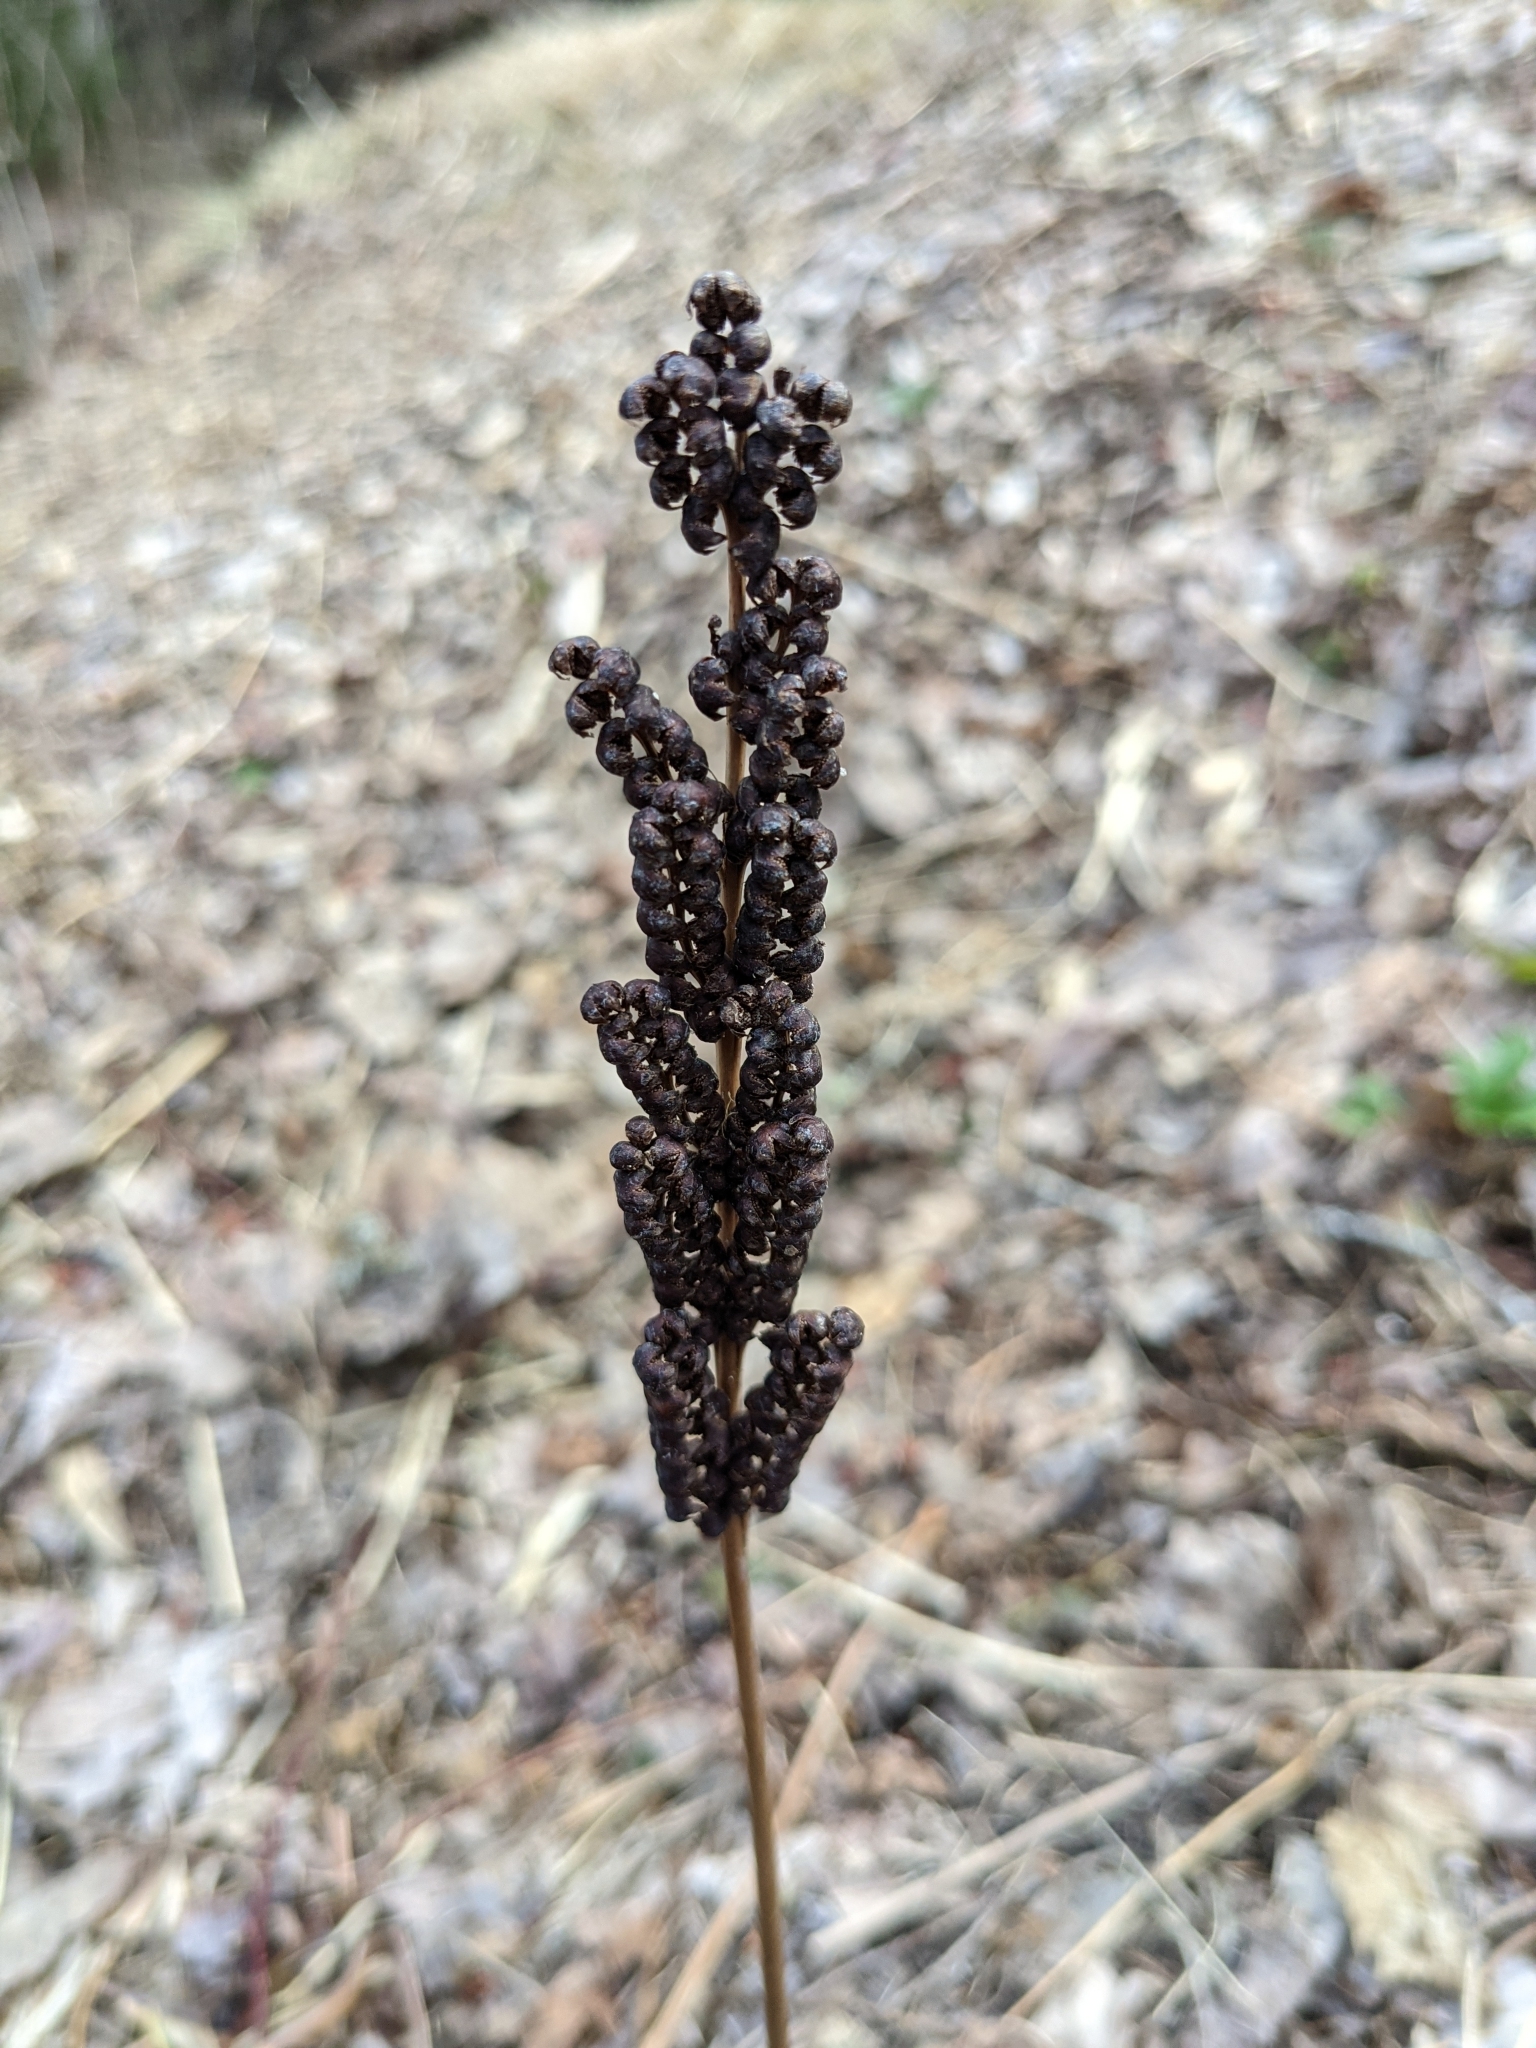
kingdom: Plantae
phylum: Tracheophyta
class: Polypodiopsida
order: Polypodiales
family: Onocleaceae
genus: Onoclea
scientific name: Onoclea sensibilis
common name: Sensitive fern
